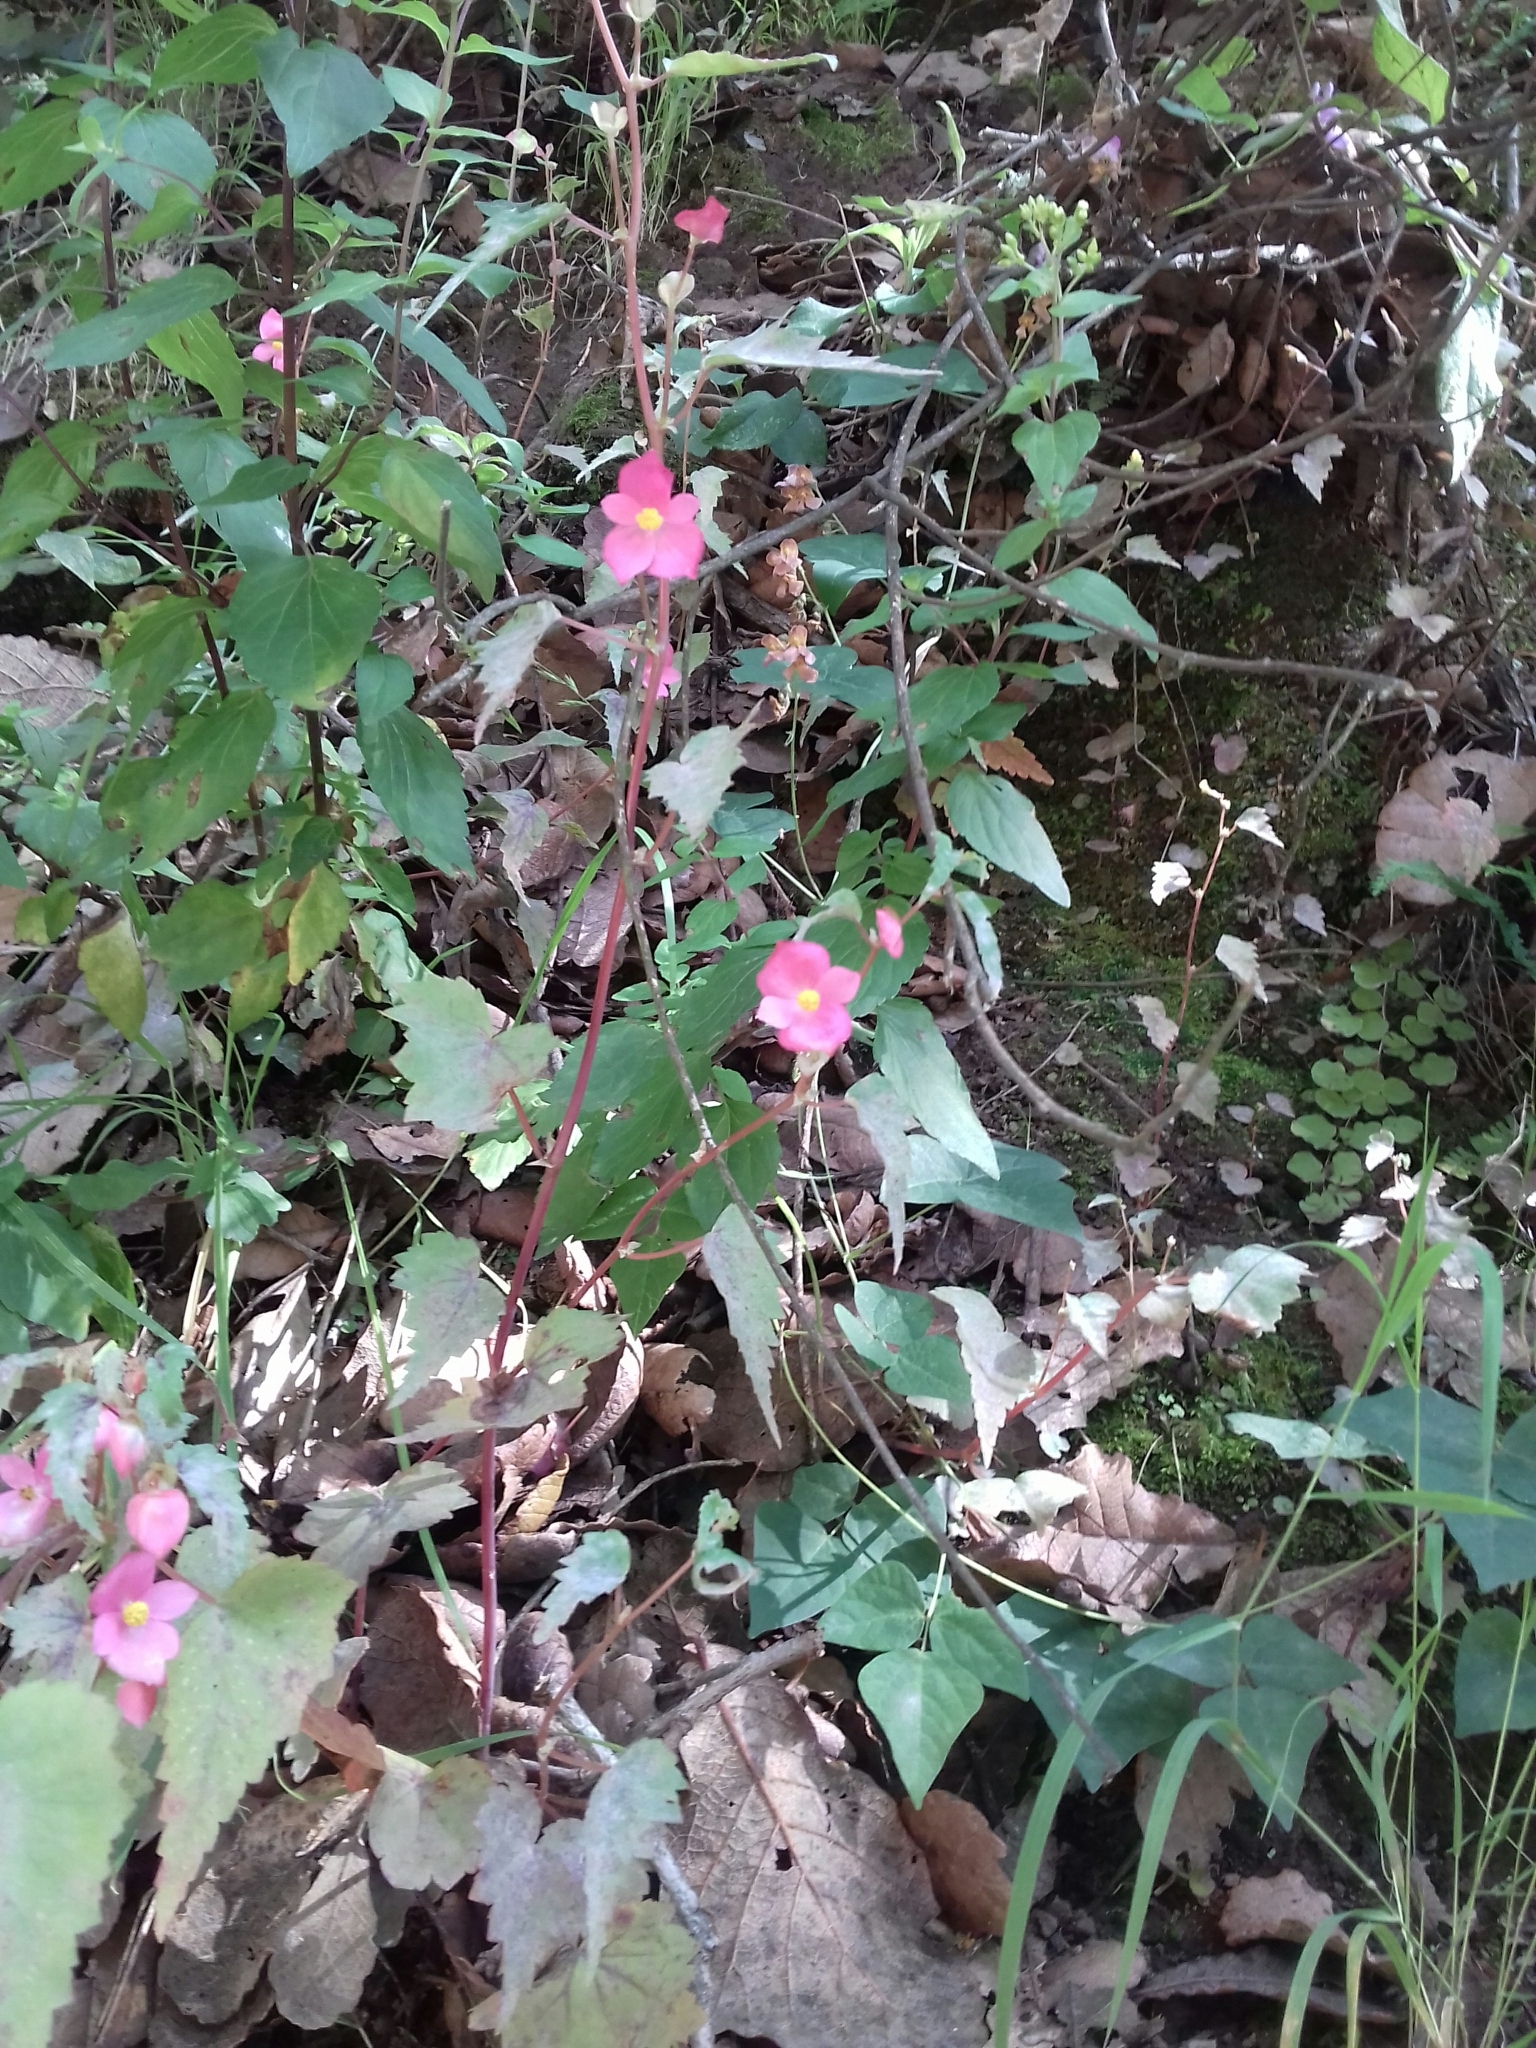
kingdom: Plantae
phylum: Tracheophyta
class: Magnoliopsida
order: Cucurbitales
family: Begoniaceae
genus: Begonia
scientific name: Begonia gracilis
